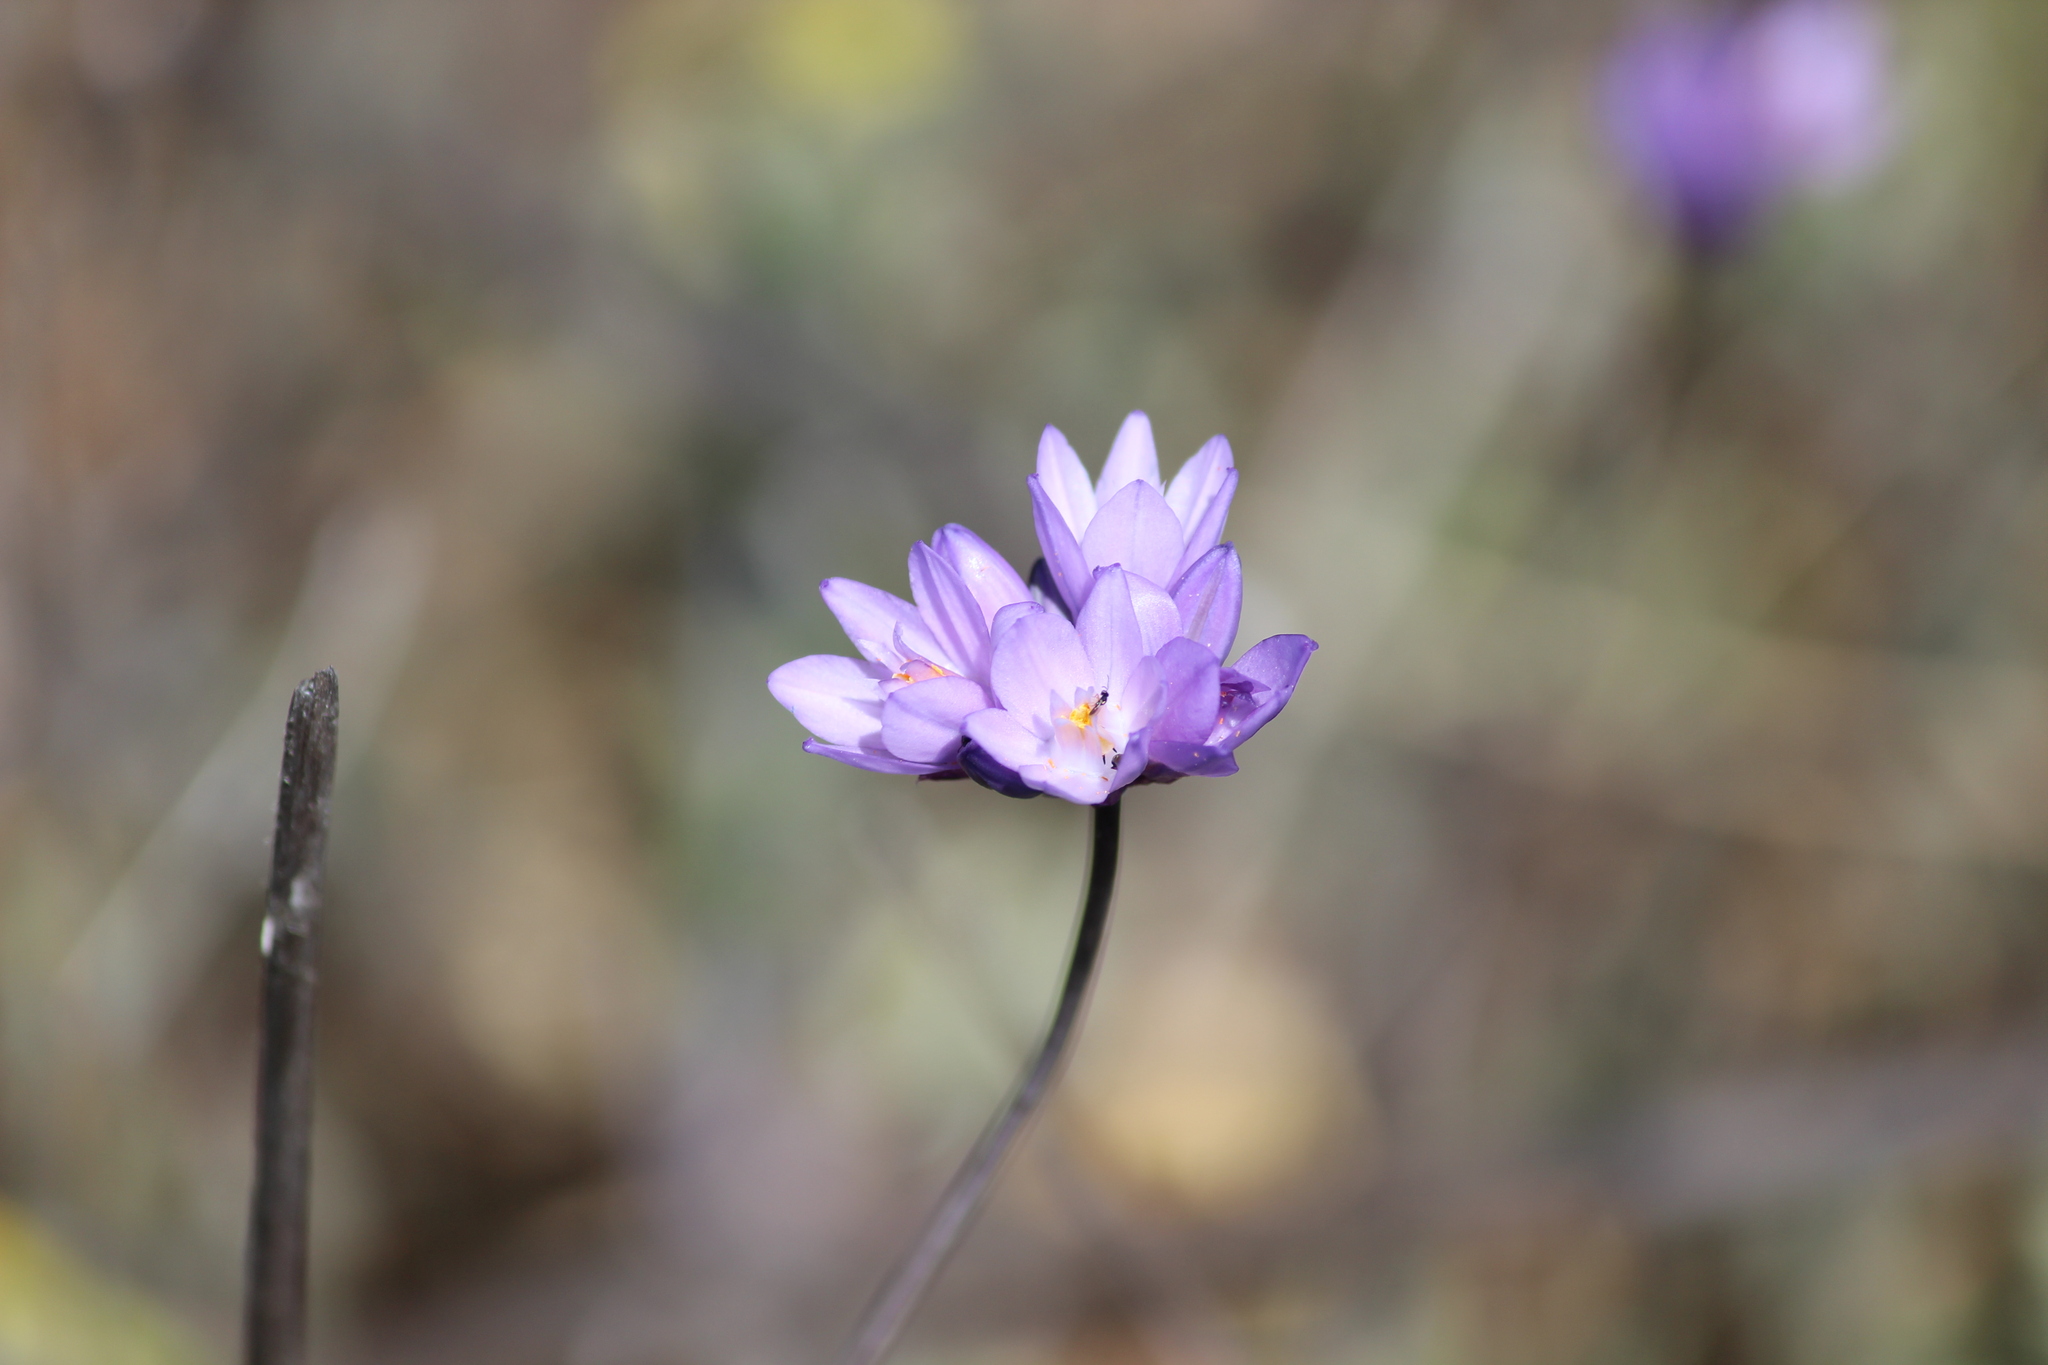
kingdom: Plantae
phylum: Tracheophyta
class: Liliopsida
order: Asparagales
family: Asparagaceae
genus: Dipterostemon
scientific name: Dipterostemon capitatus
